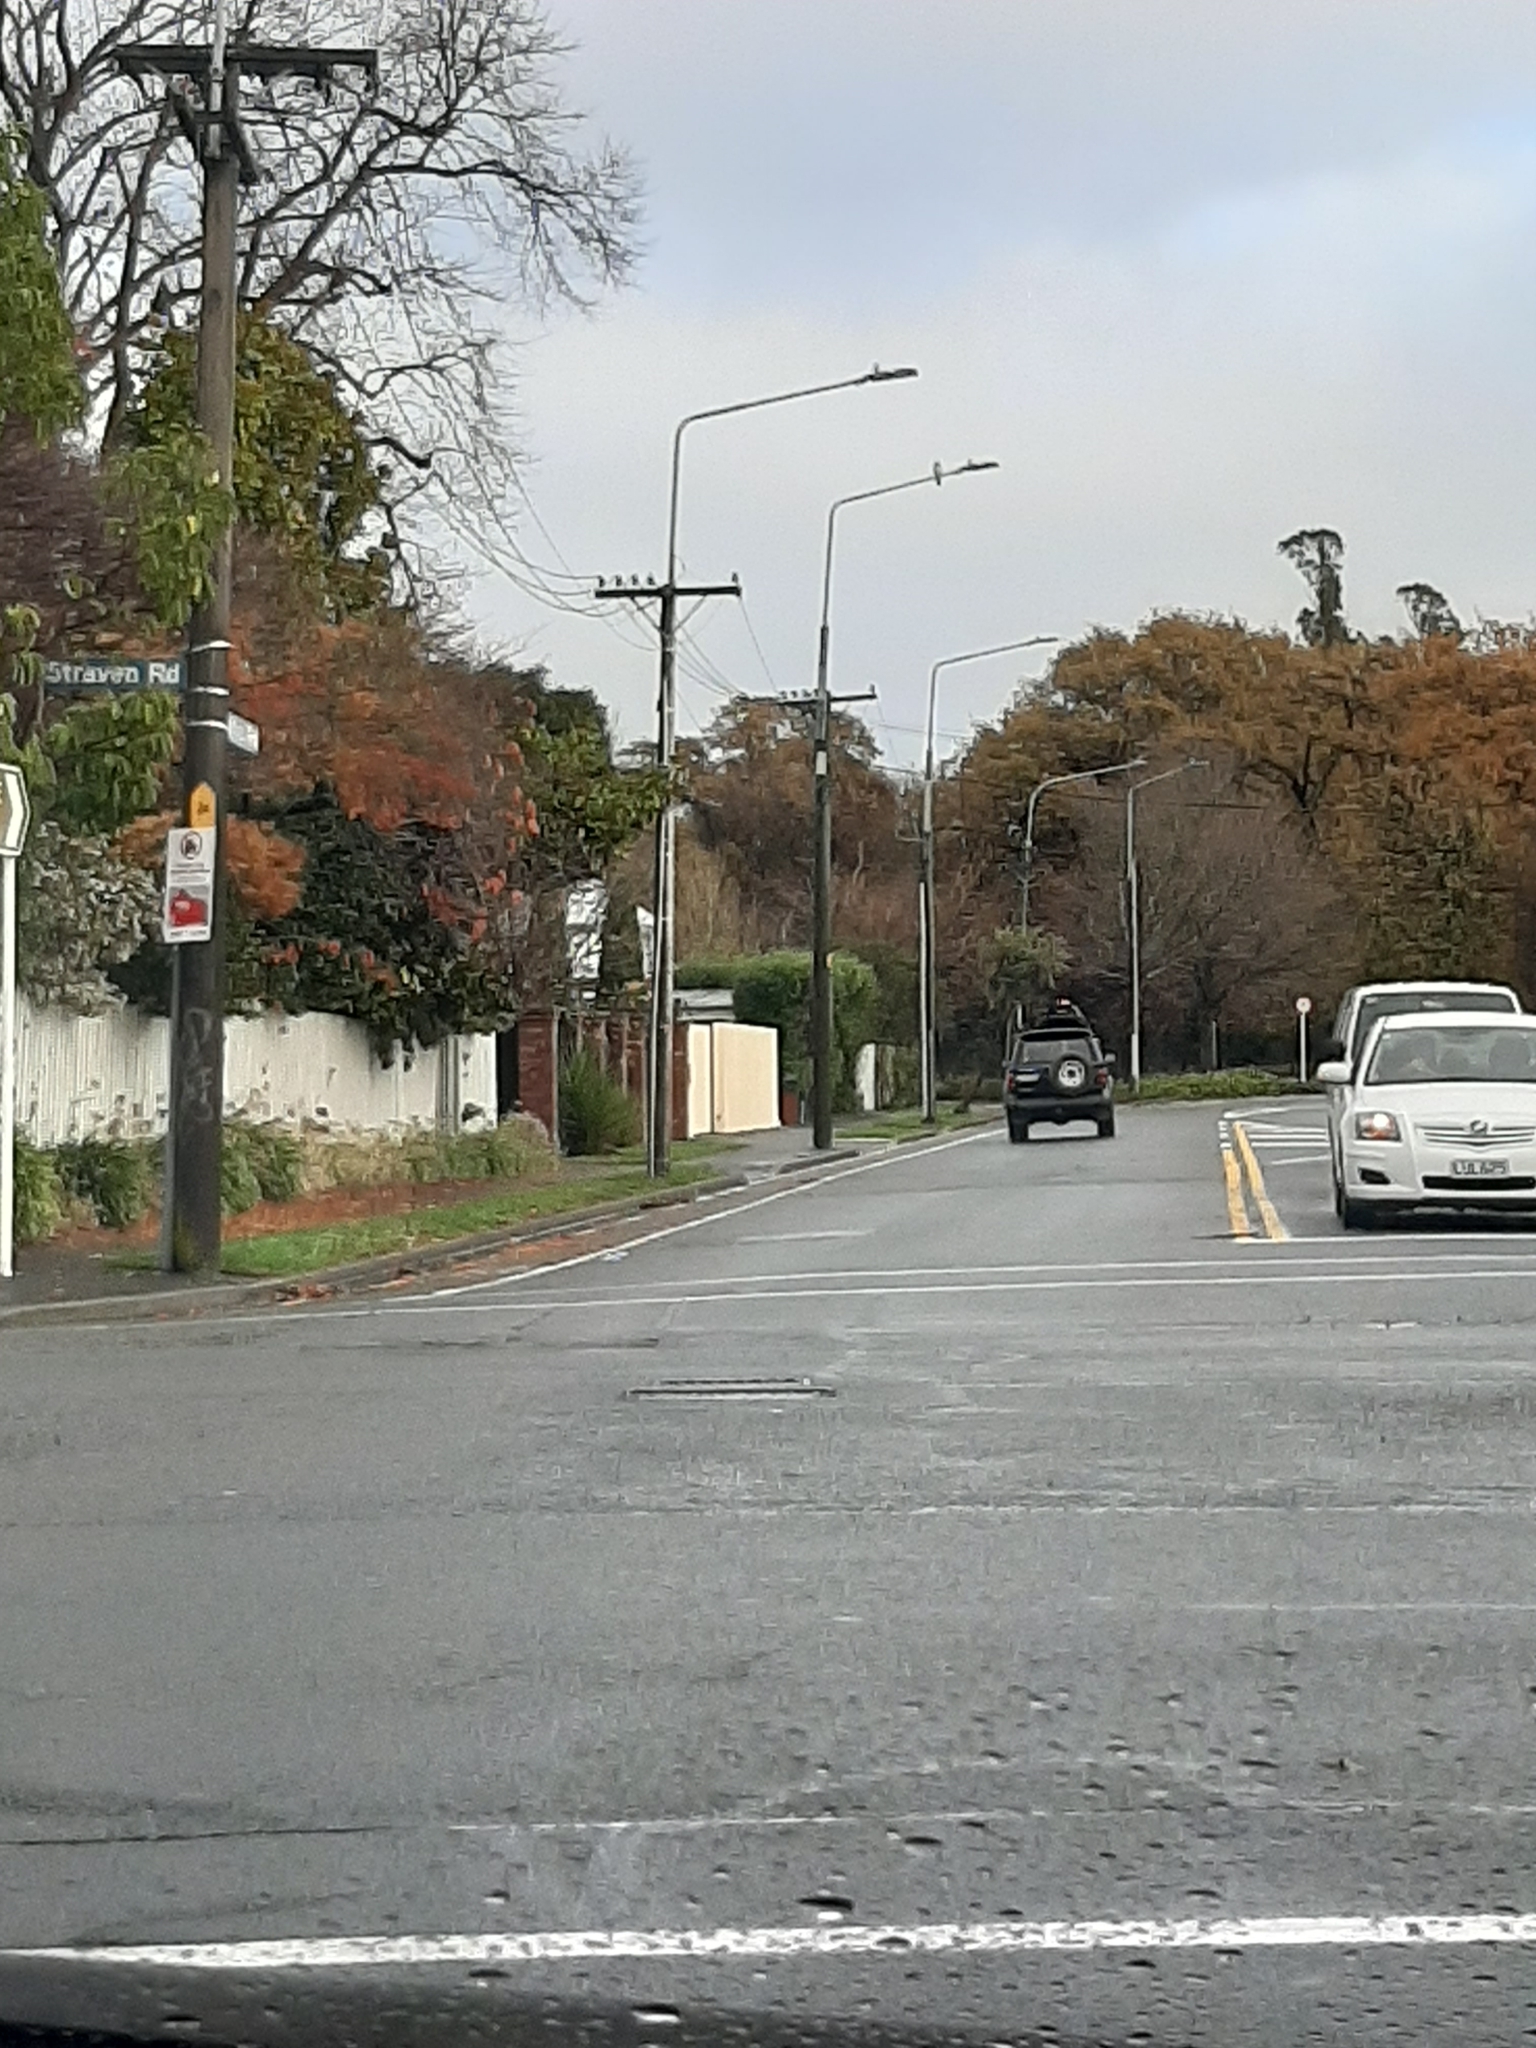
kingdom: Animalia
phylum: Chordata
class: Aves
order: Columbiformes
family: Columbidae
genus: Hemiphaga
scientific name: Hemiphaga novaeseelandiae
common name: New zealand pigeon
